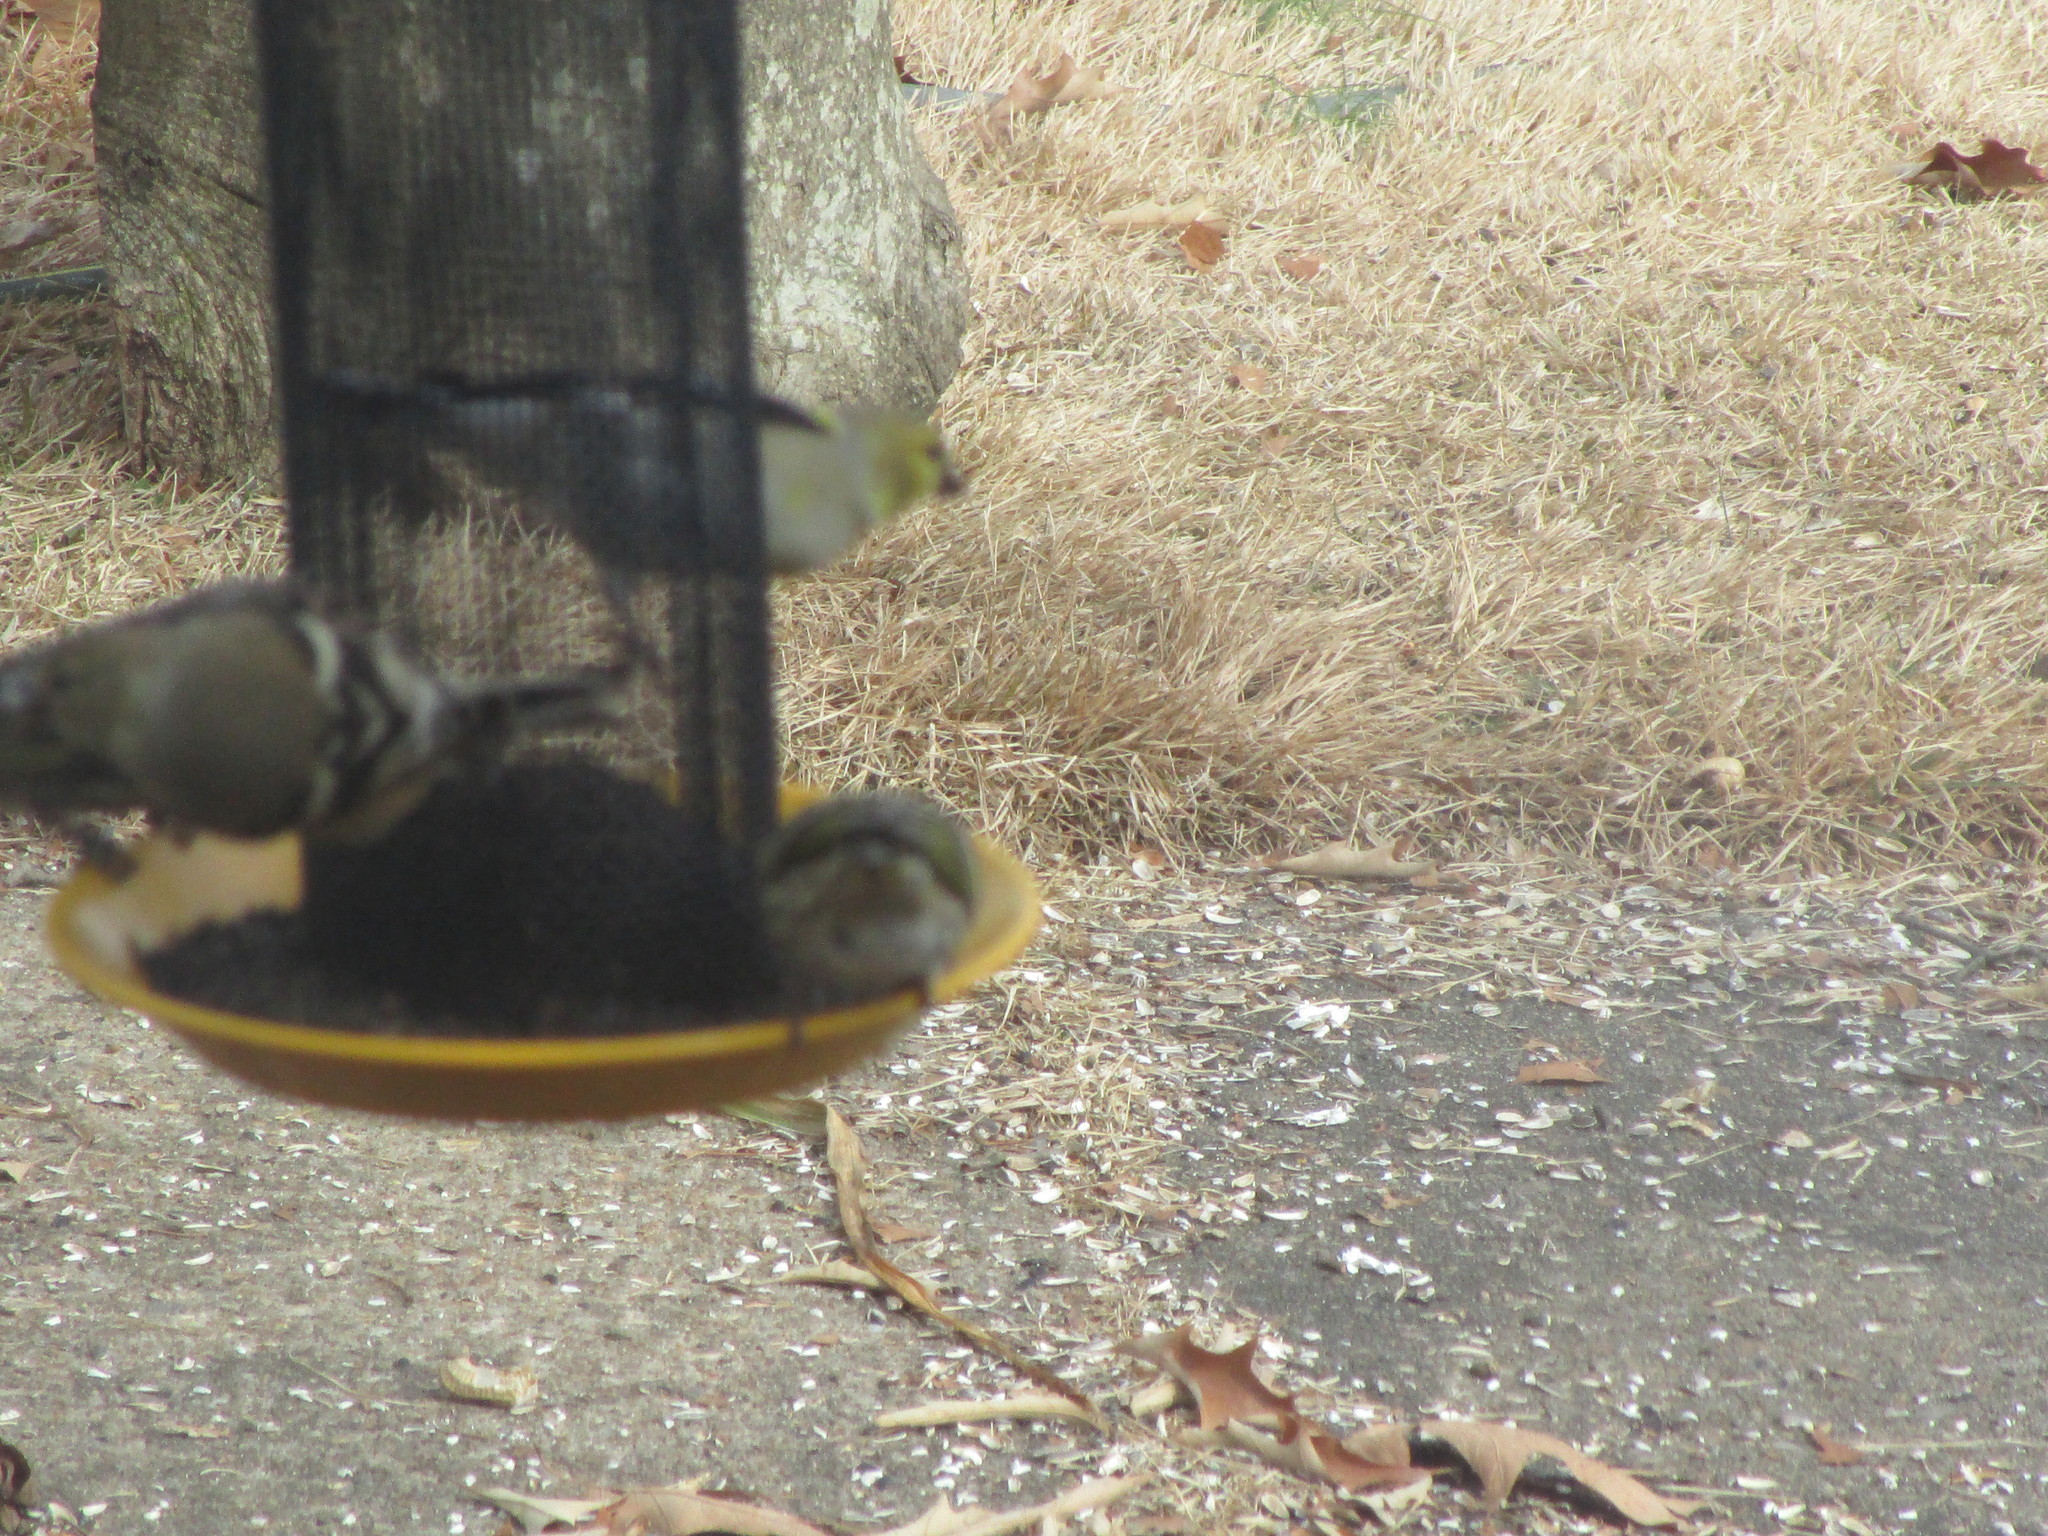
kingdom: Animalia
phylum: Chordata
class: Aves
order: Passeriformes
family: Fringillidae
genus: Spinus
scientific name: Spinus tristis
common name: American goldfinch
